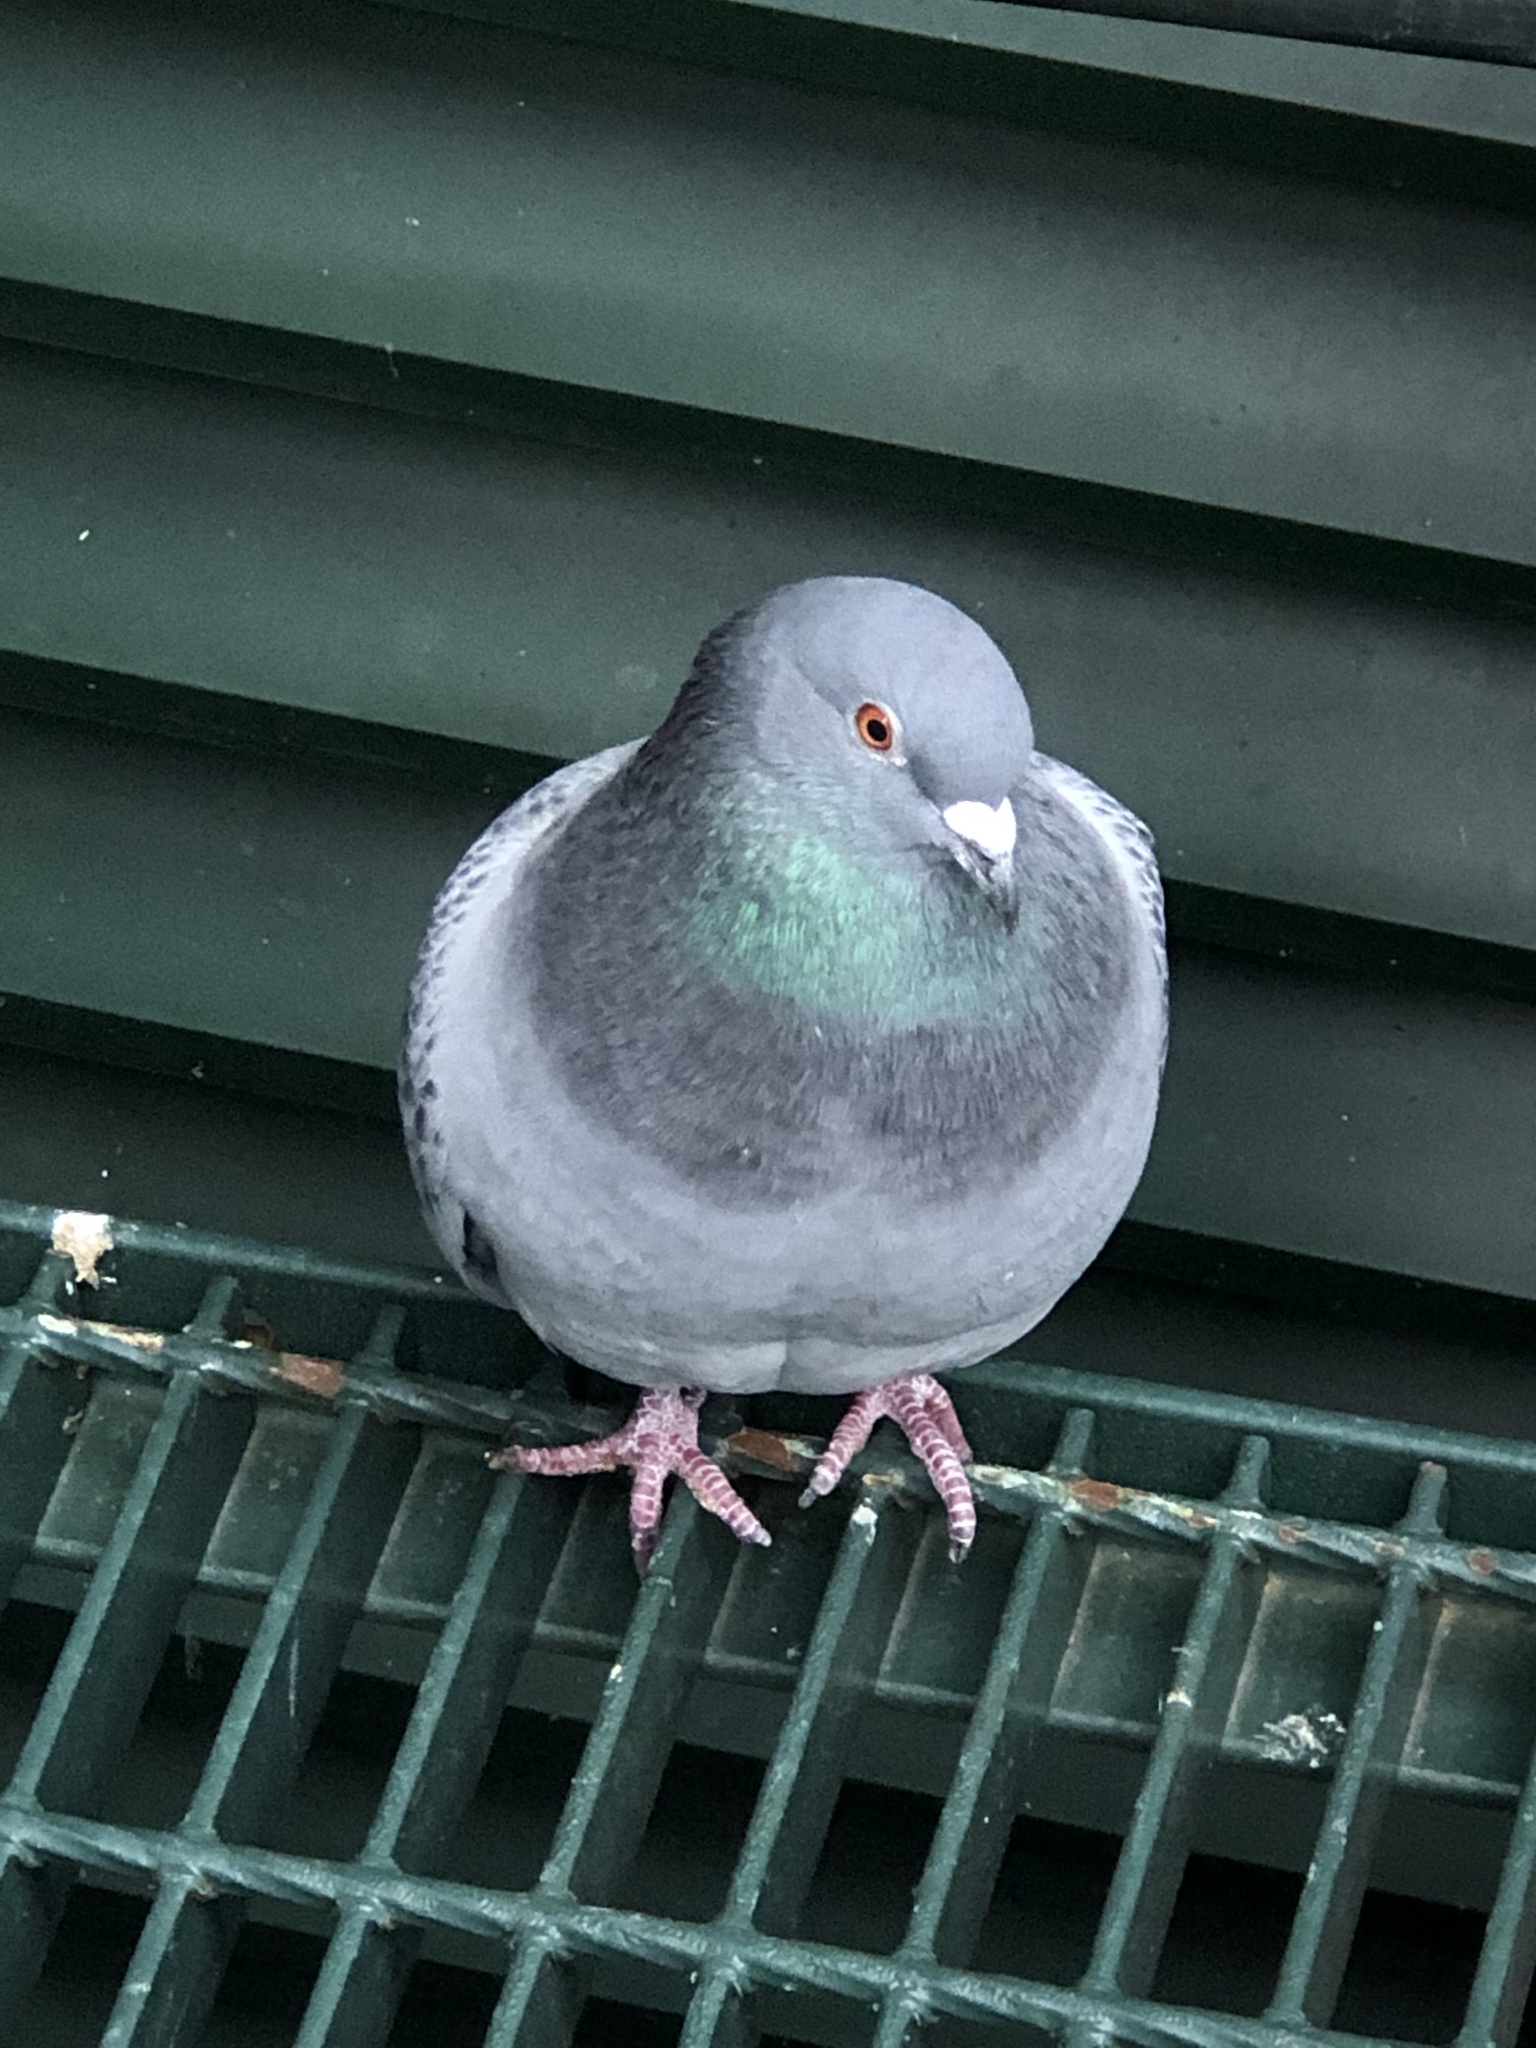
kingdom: Animalia
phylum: Chordata
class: Aves
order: Columbiformes
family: Columbidae
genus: Columba
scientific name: Columba livia
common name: Rock pigeon
